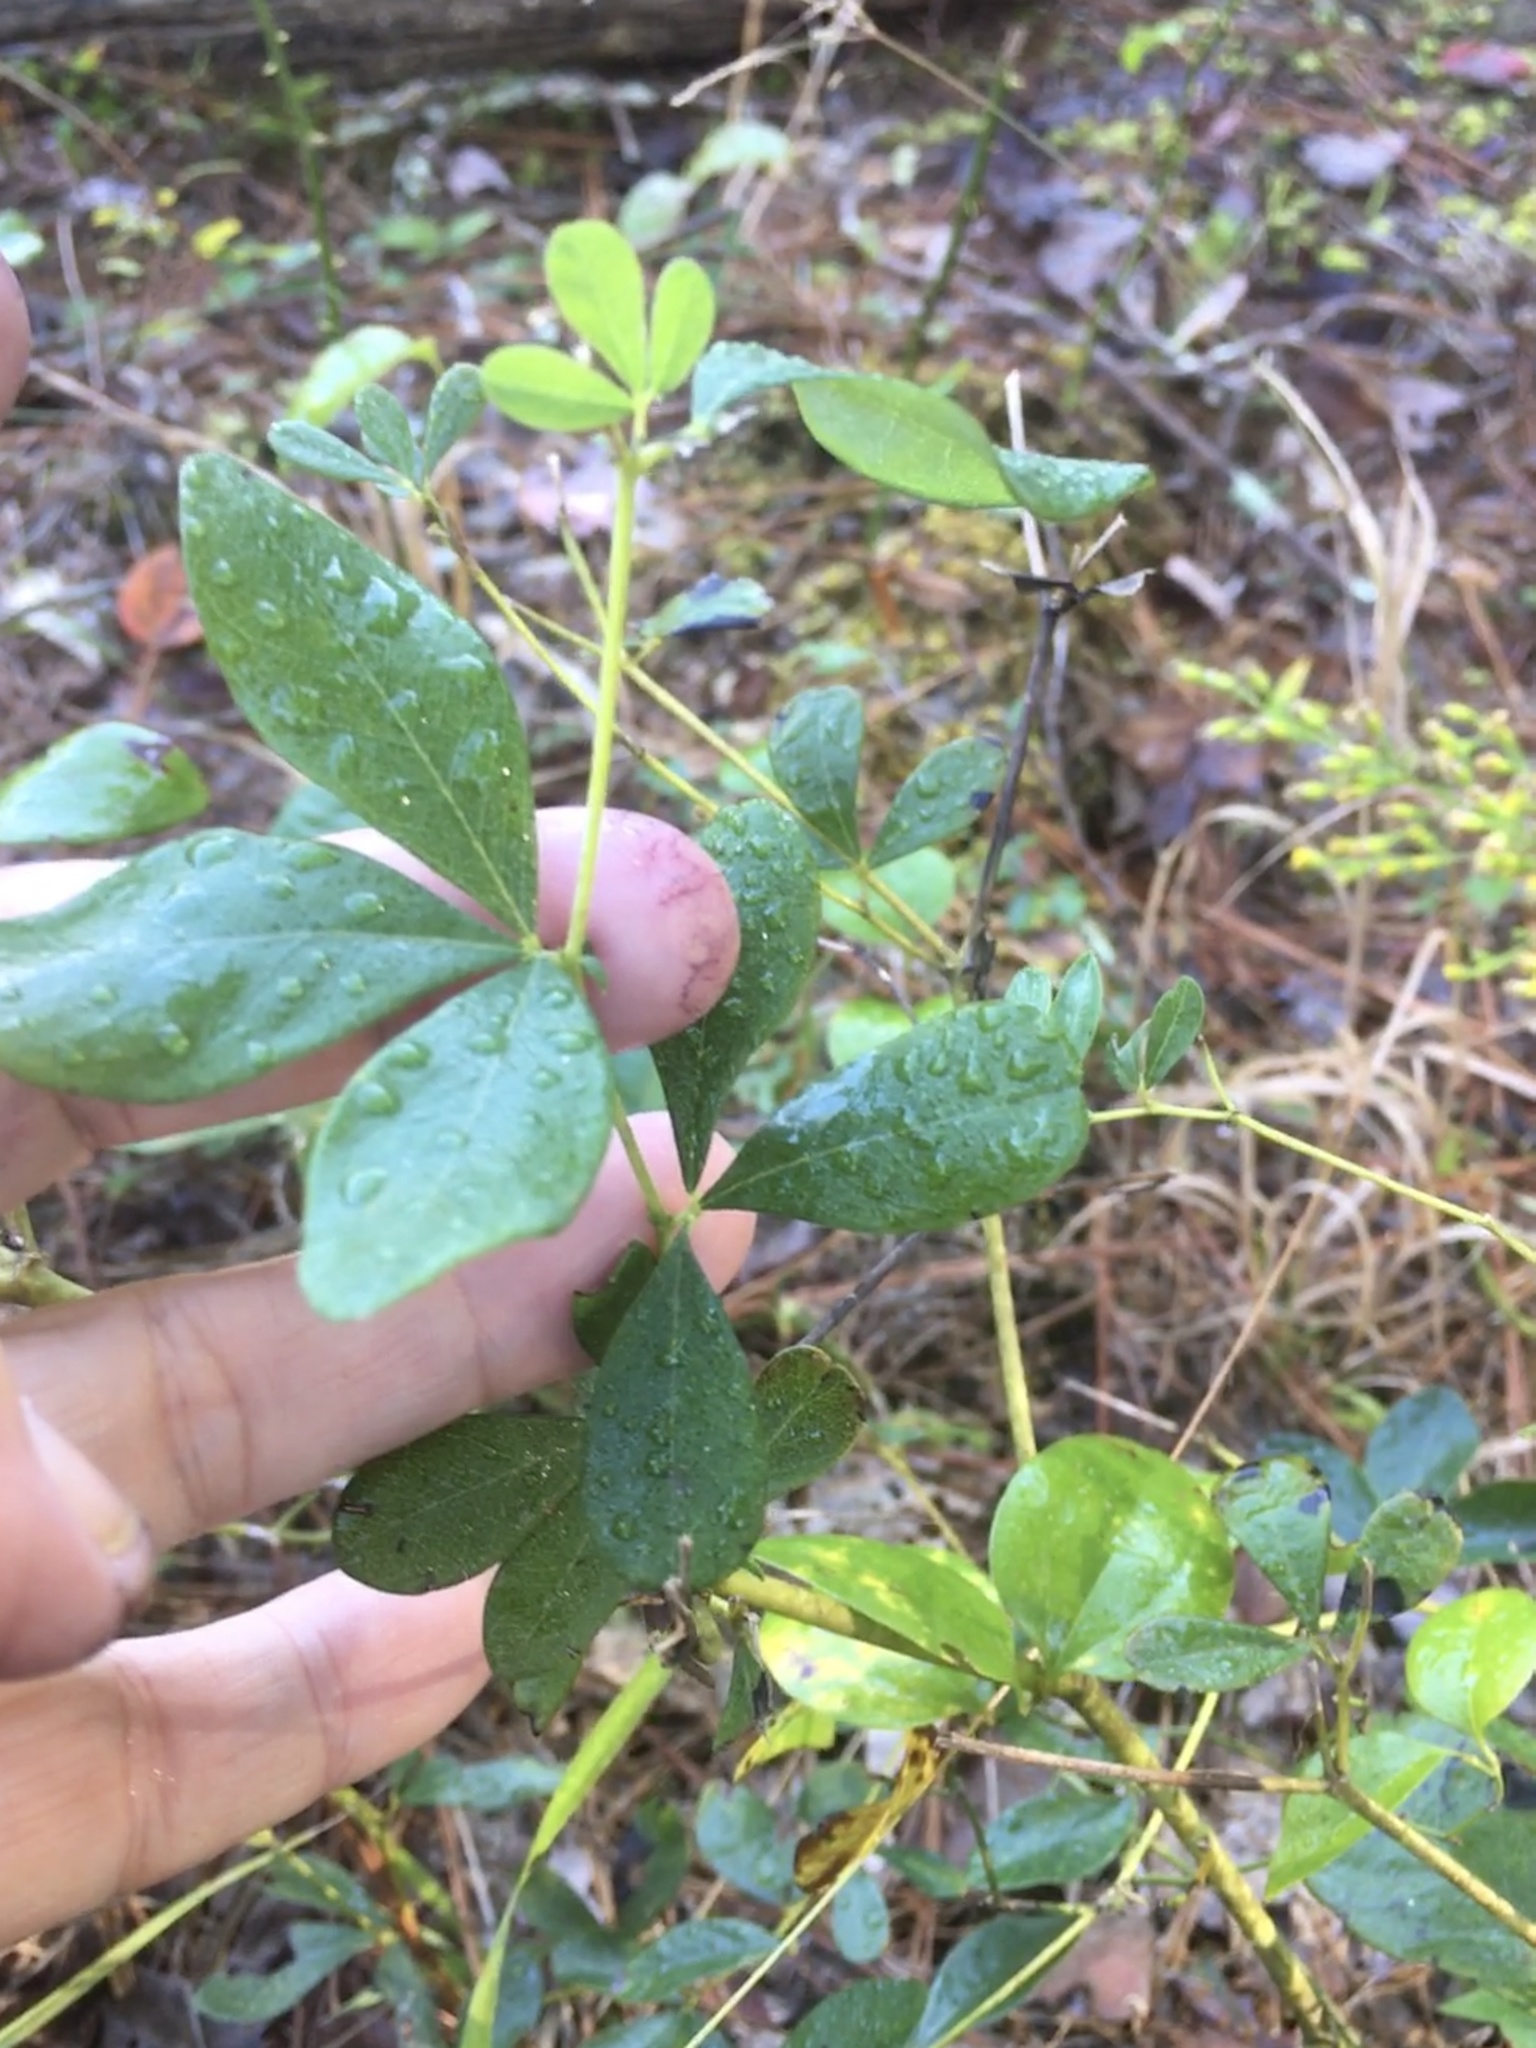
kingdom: Plantae
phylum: Tracheophyta
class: Magnoliopsida
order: Fabales
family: Fabaceae
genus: Baptisia
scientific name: Baptisia alba
